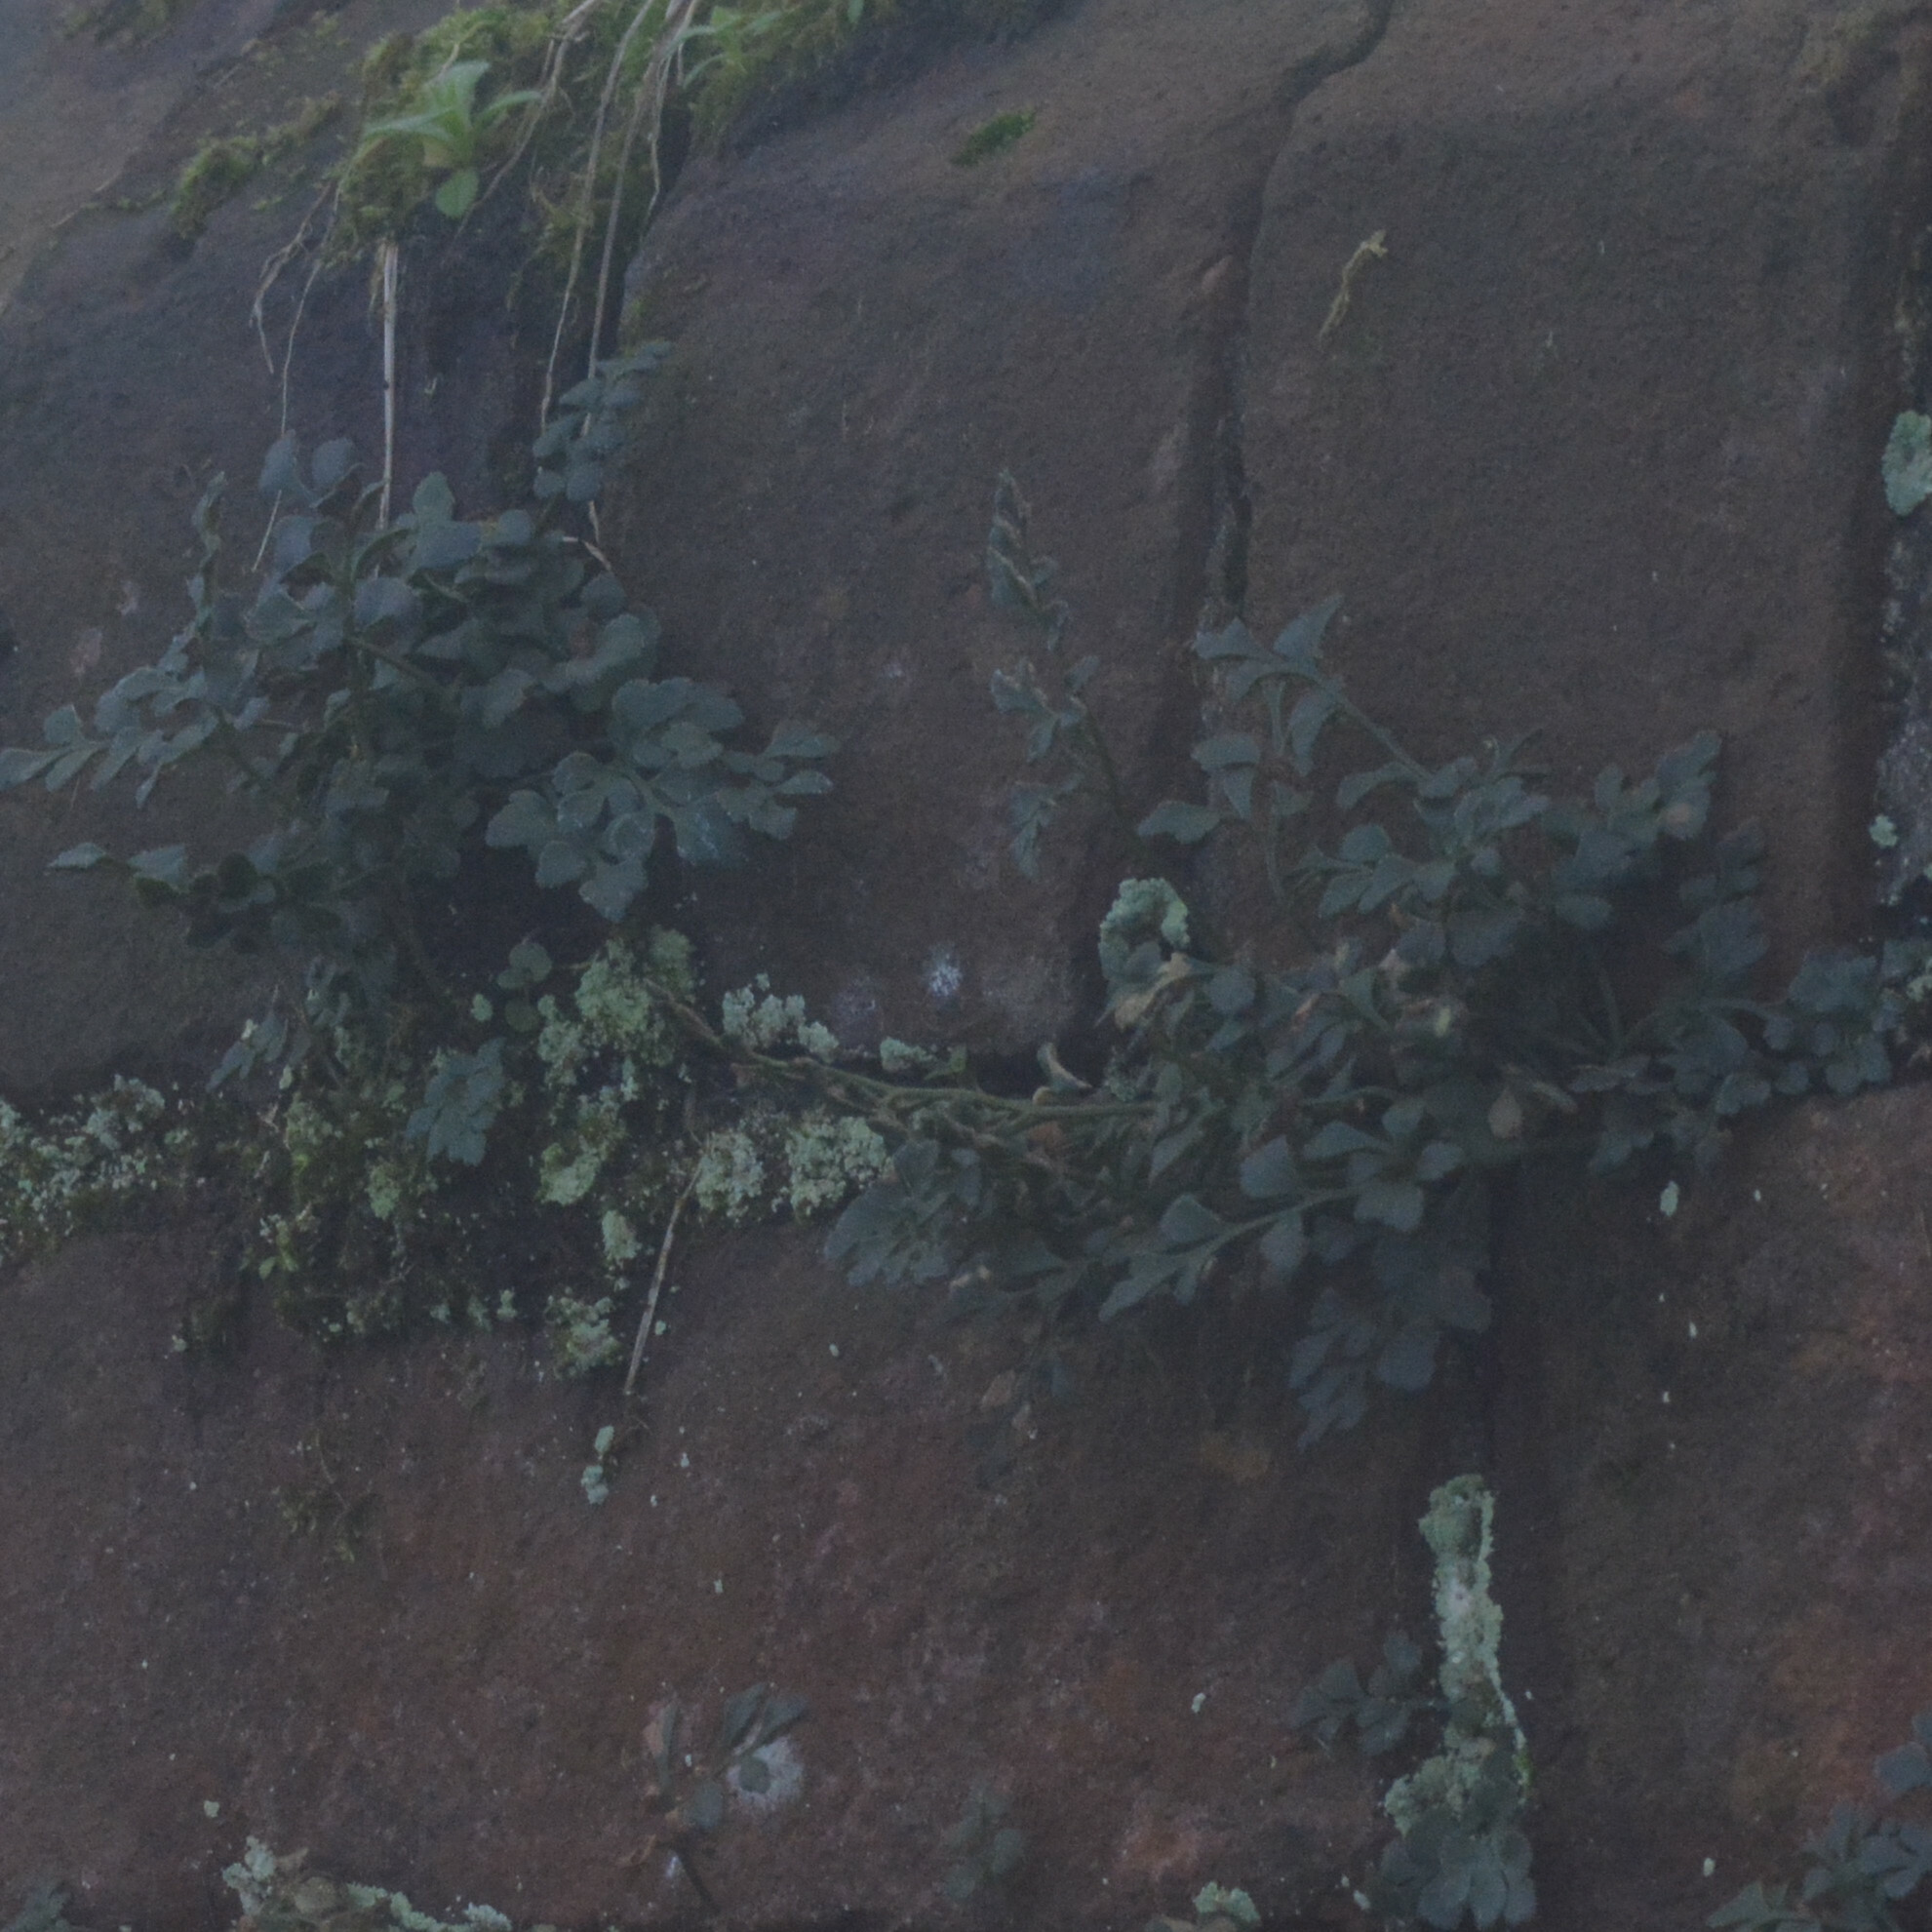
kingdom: Plantae
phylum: Tracheophyta
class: Polypodiopsida
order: Polypodiales
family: Aspleniaceae
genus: Asplenium
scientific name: Asplenium ruta-muraria
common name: Wall-rue
